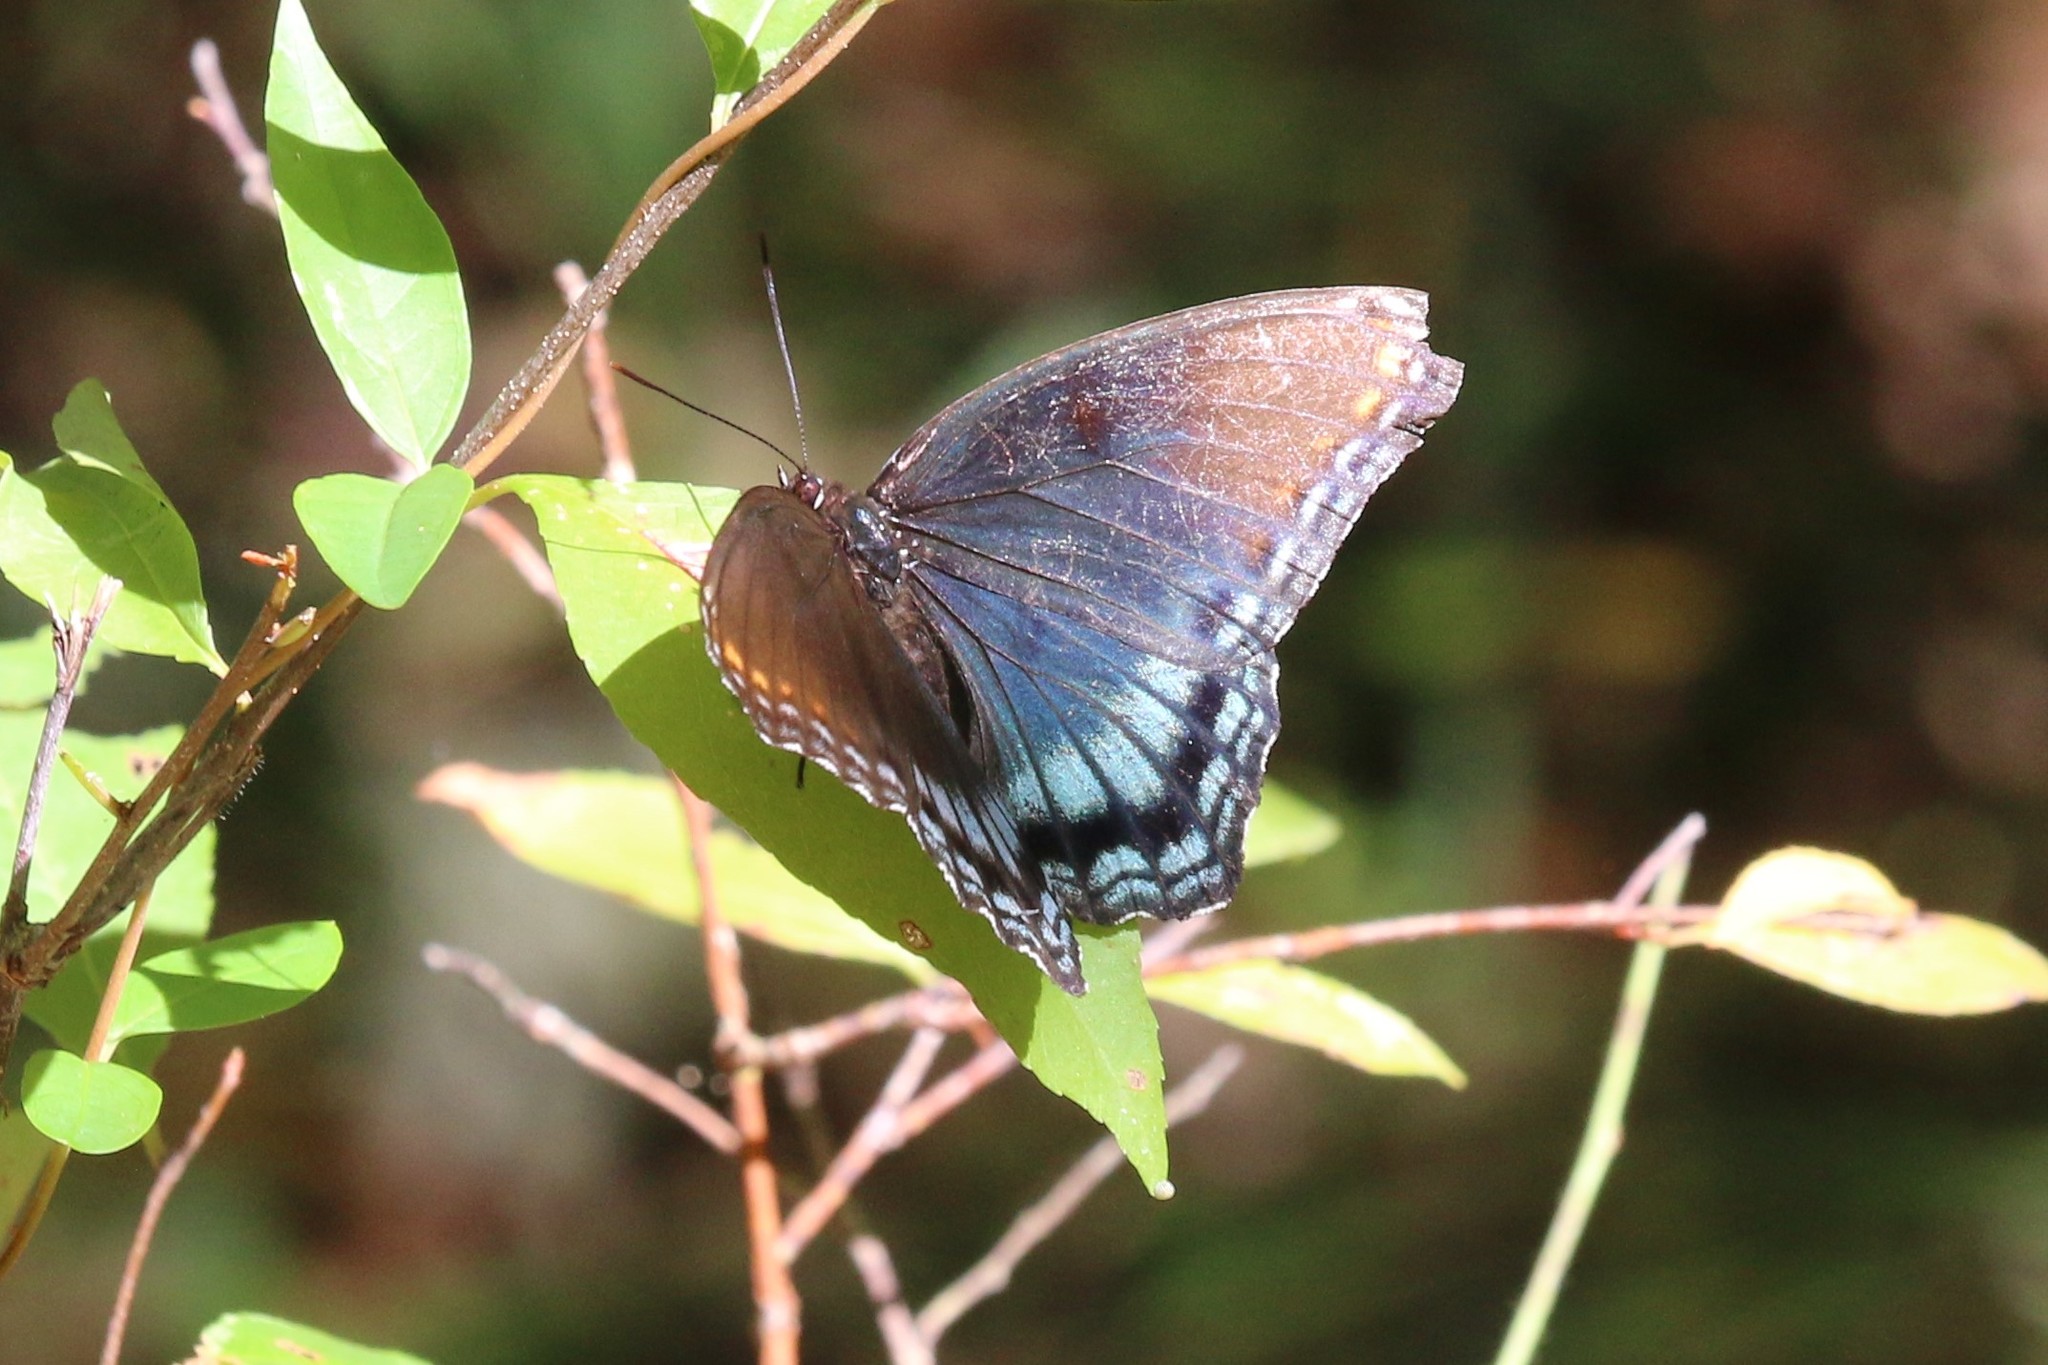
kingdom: Animalia
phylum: Arthropoda
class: Insecta
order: Lepidoptera
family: Nymphalidae
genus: Limenitis
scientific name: Limenitis astyanax
